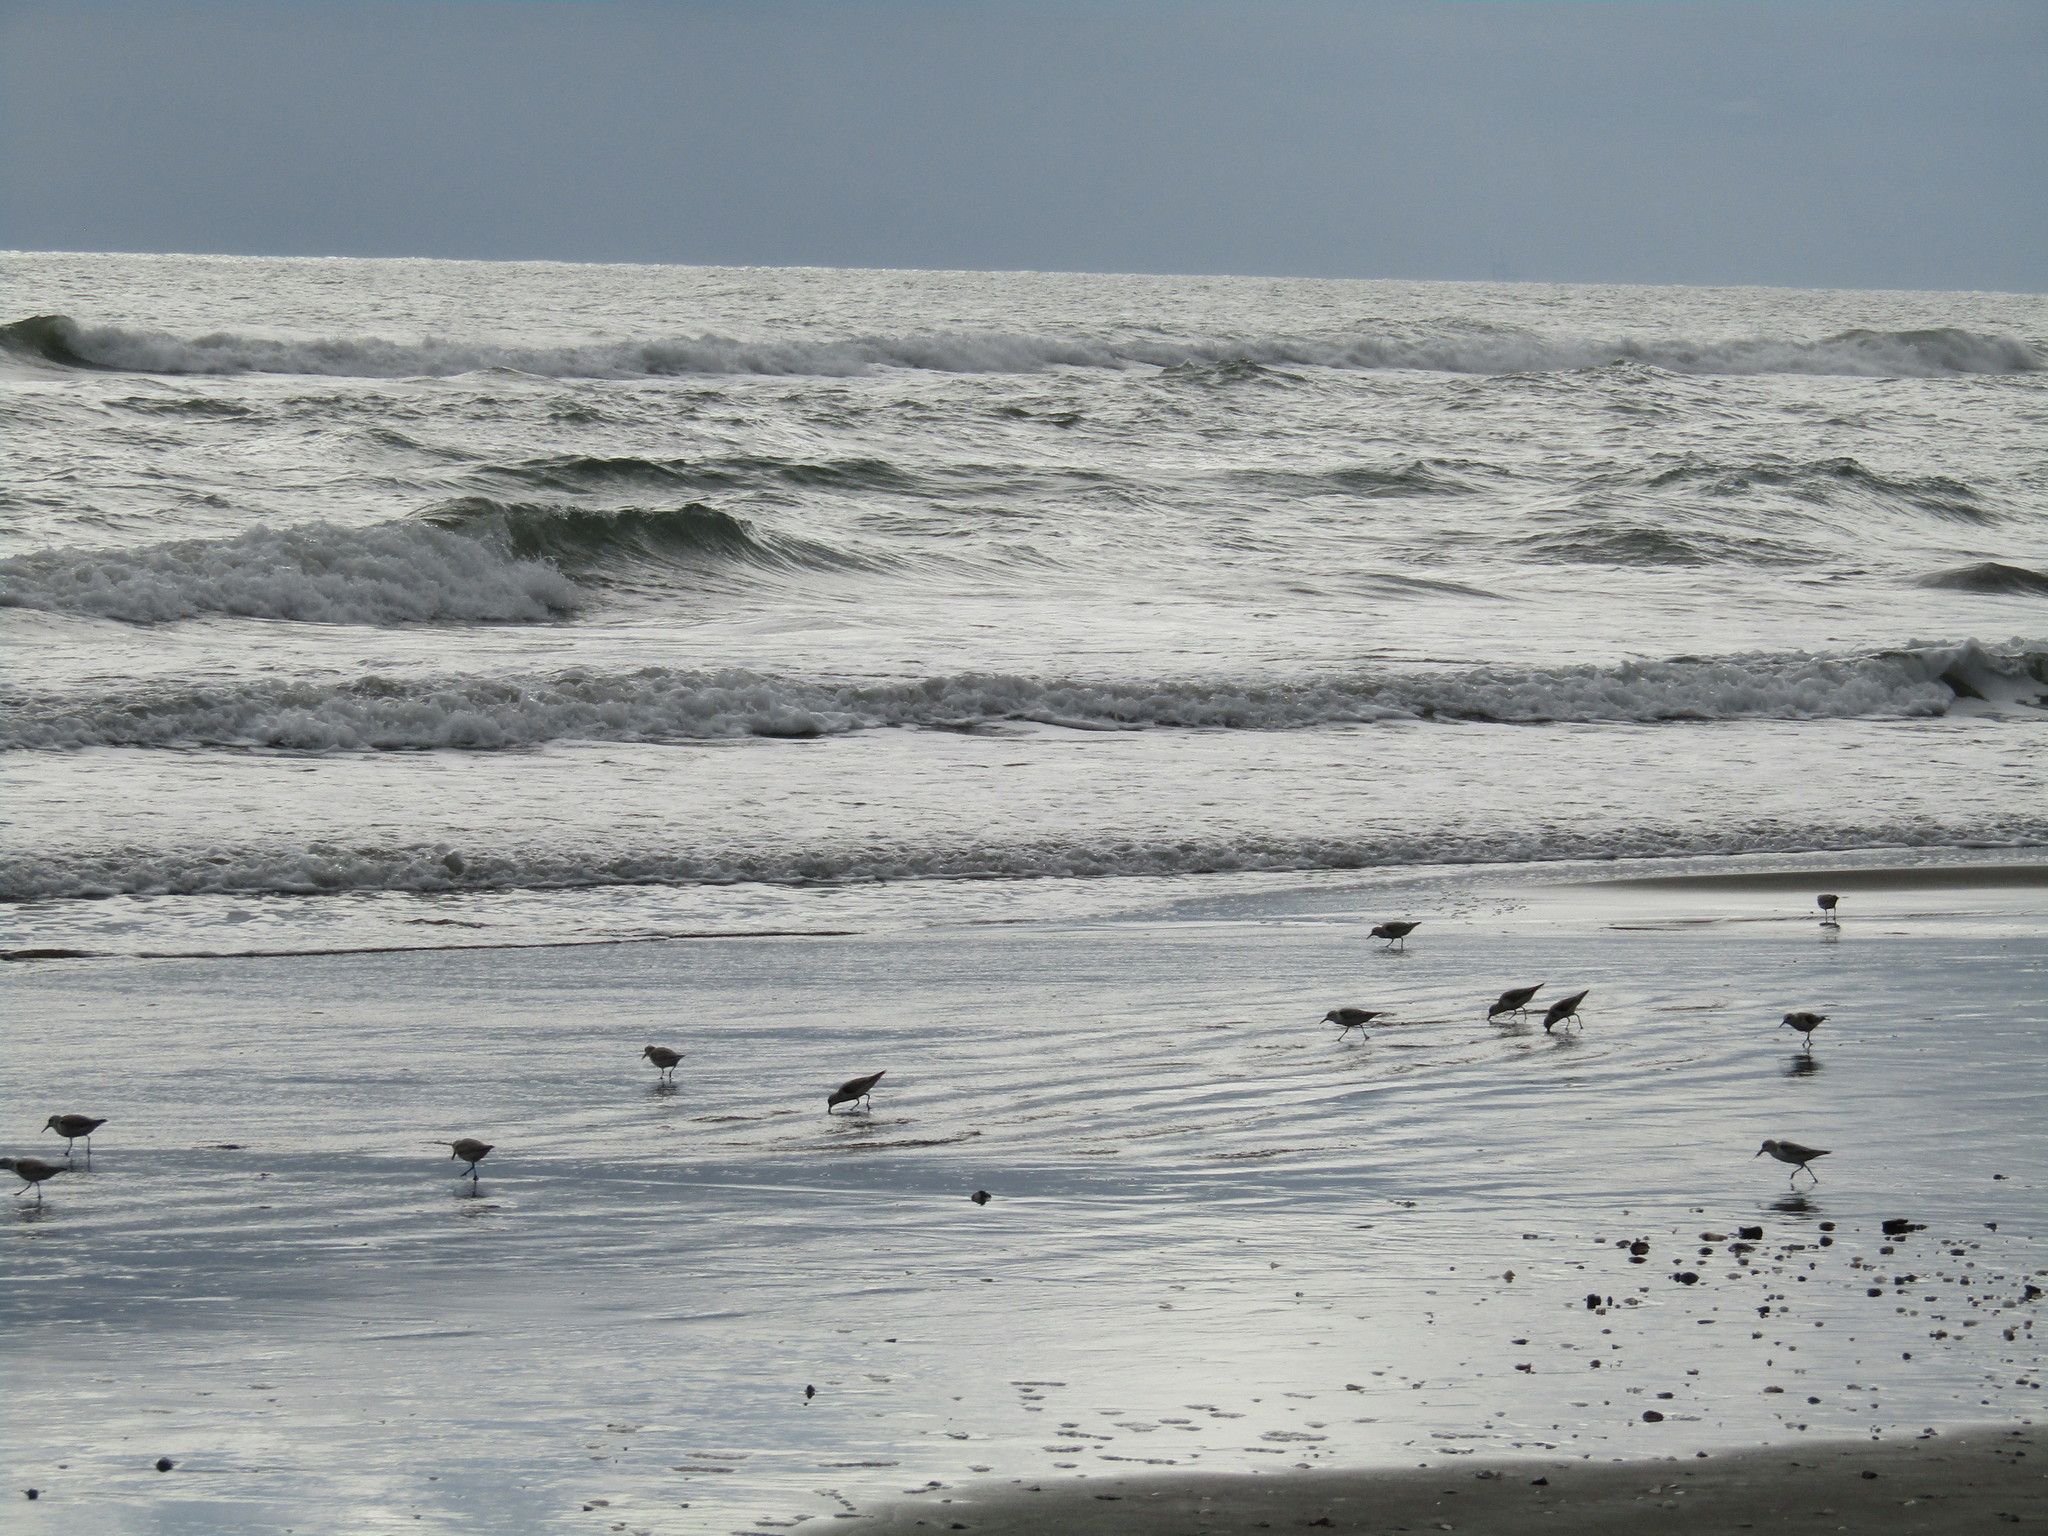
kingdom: Animalia
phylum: Chordata
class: Aves
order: Charadriiformes
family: Scolopacidae
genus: Calidris
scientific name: Calidris alba
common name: Sanderling
